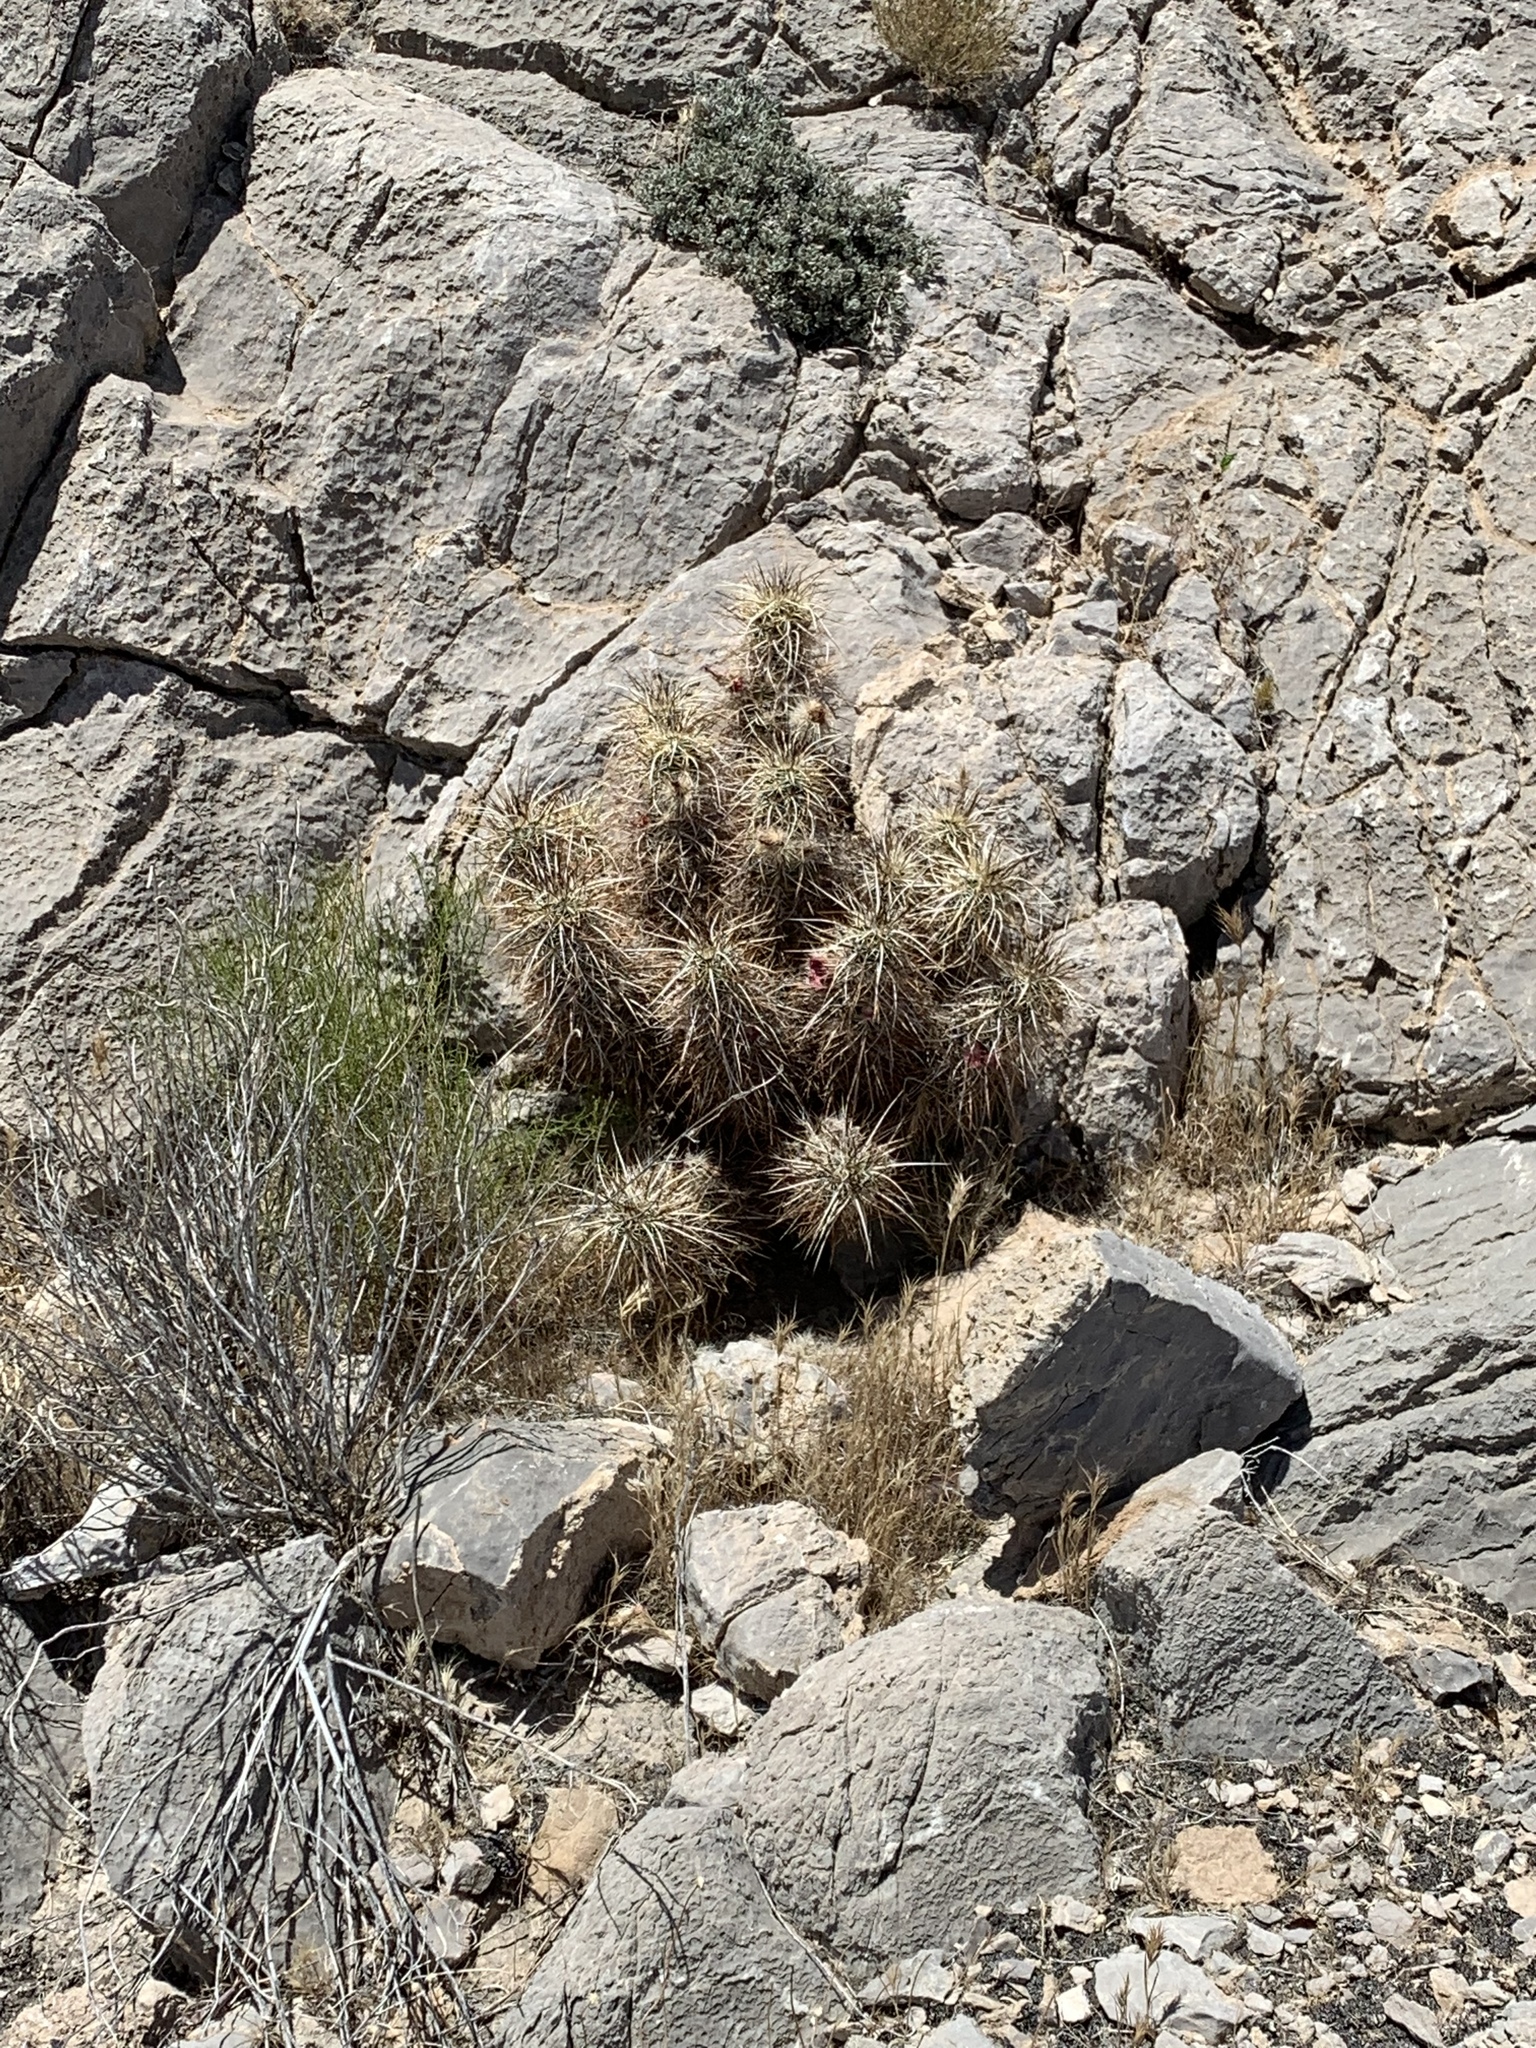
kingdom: Plantae
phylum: Tracheophyta
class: Magnoliopsida
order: Caryophyllales
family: Cactaceae
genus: Echinocereus
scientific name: Echinocereus engelmannii
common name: Engelmann's hedgehog cactus
